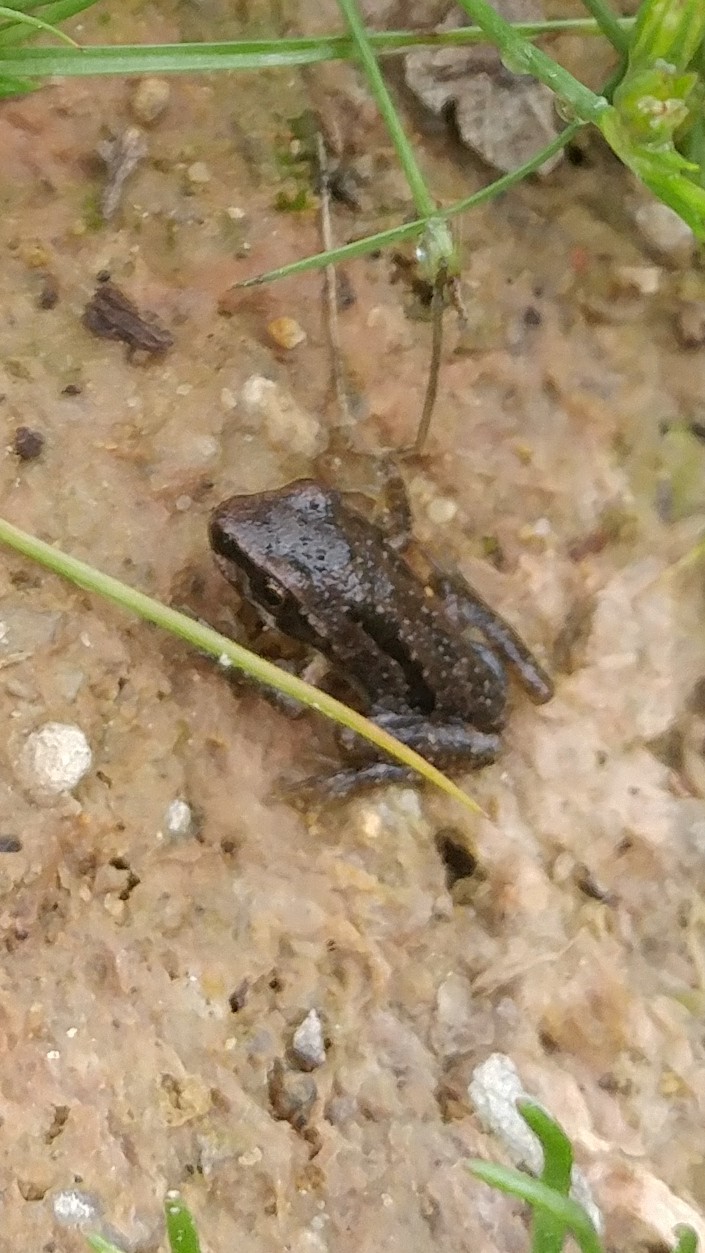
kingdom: Animalia
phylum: Chordata
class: Amphibia
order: Anura
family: Hylidae
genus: Pseudacris
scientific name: Pseudacris regilla
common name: Pacific chorus frog
